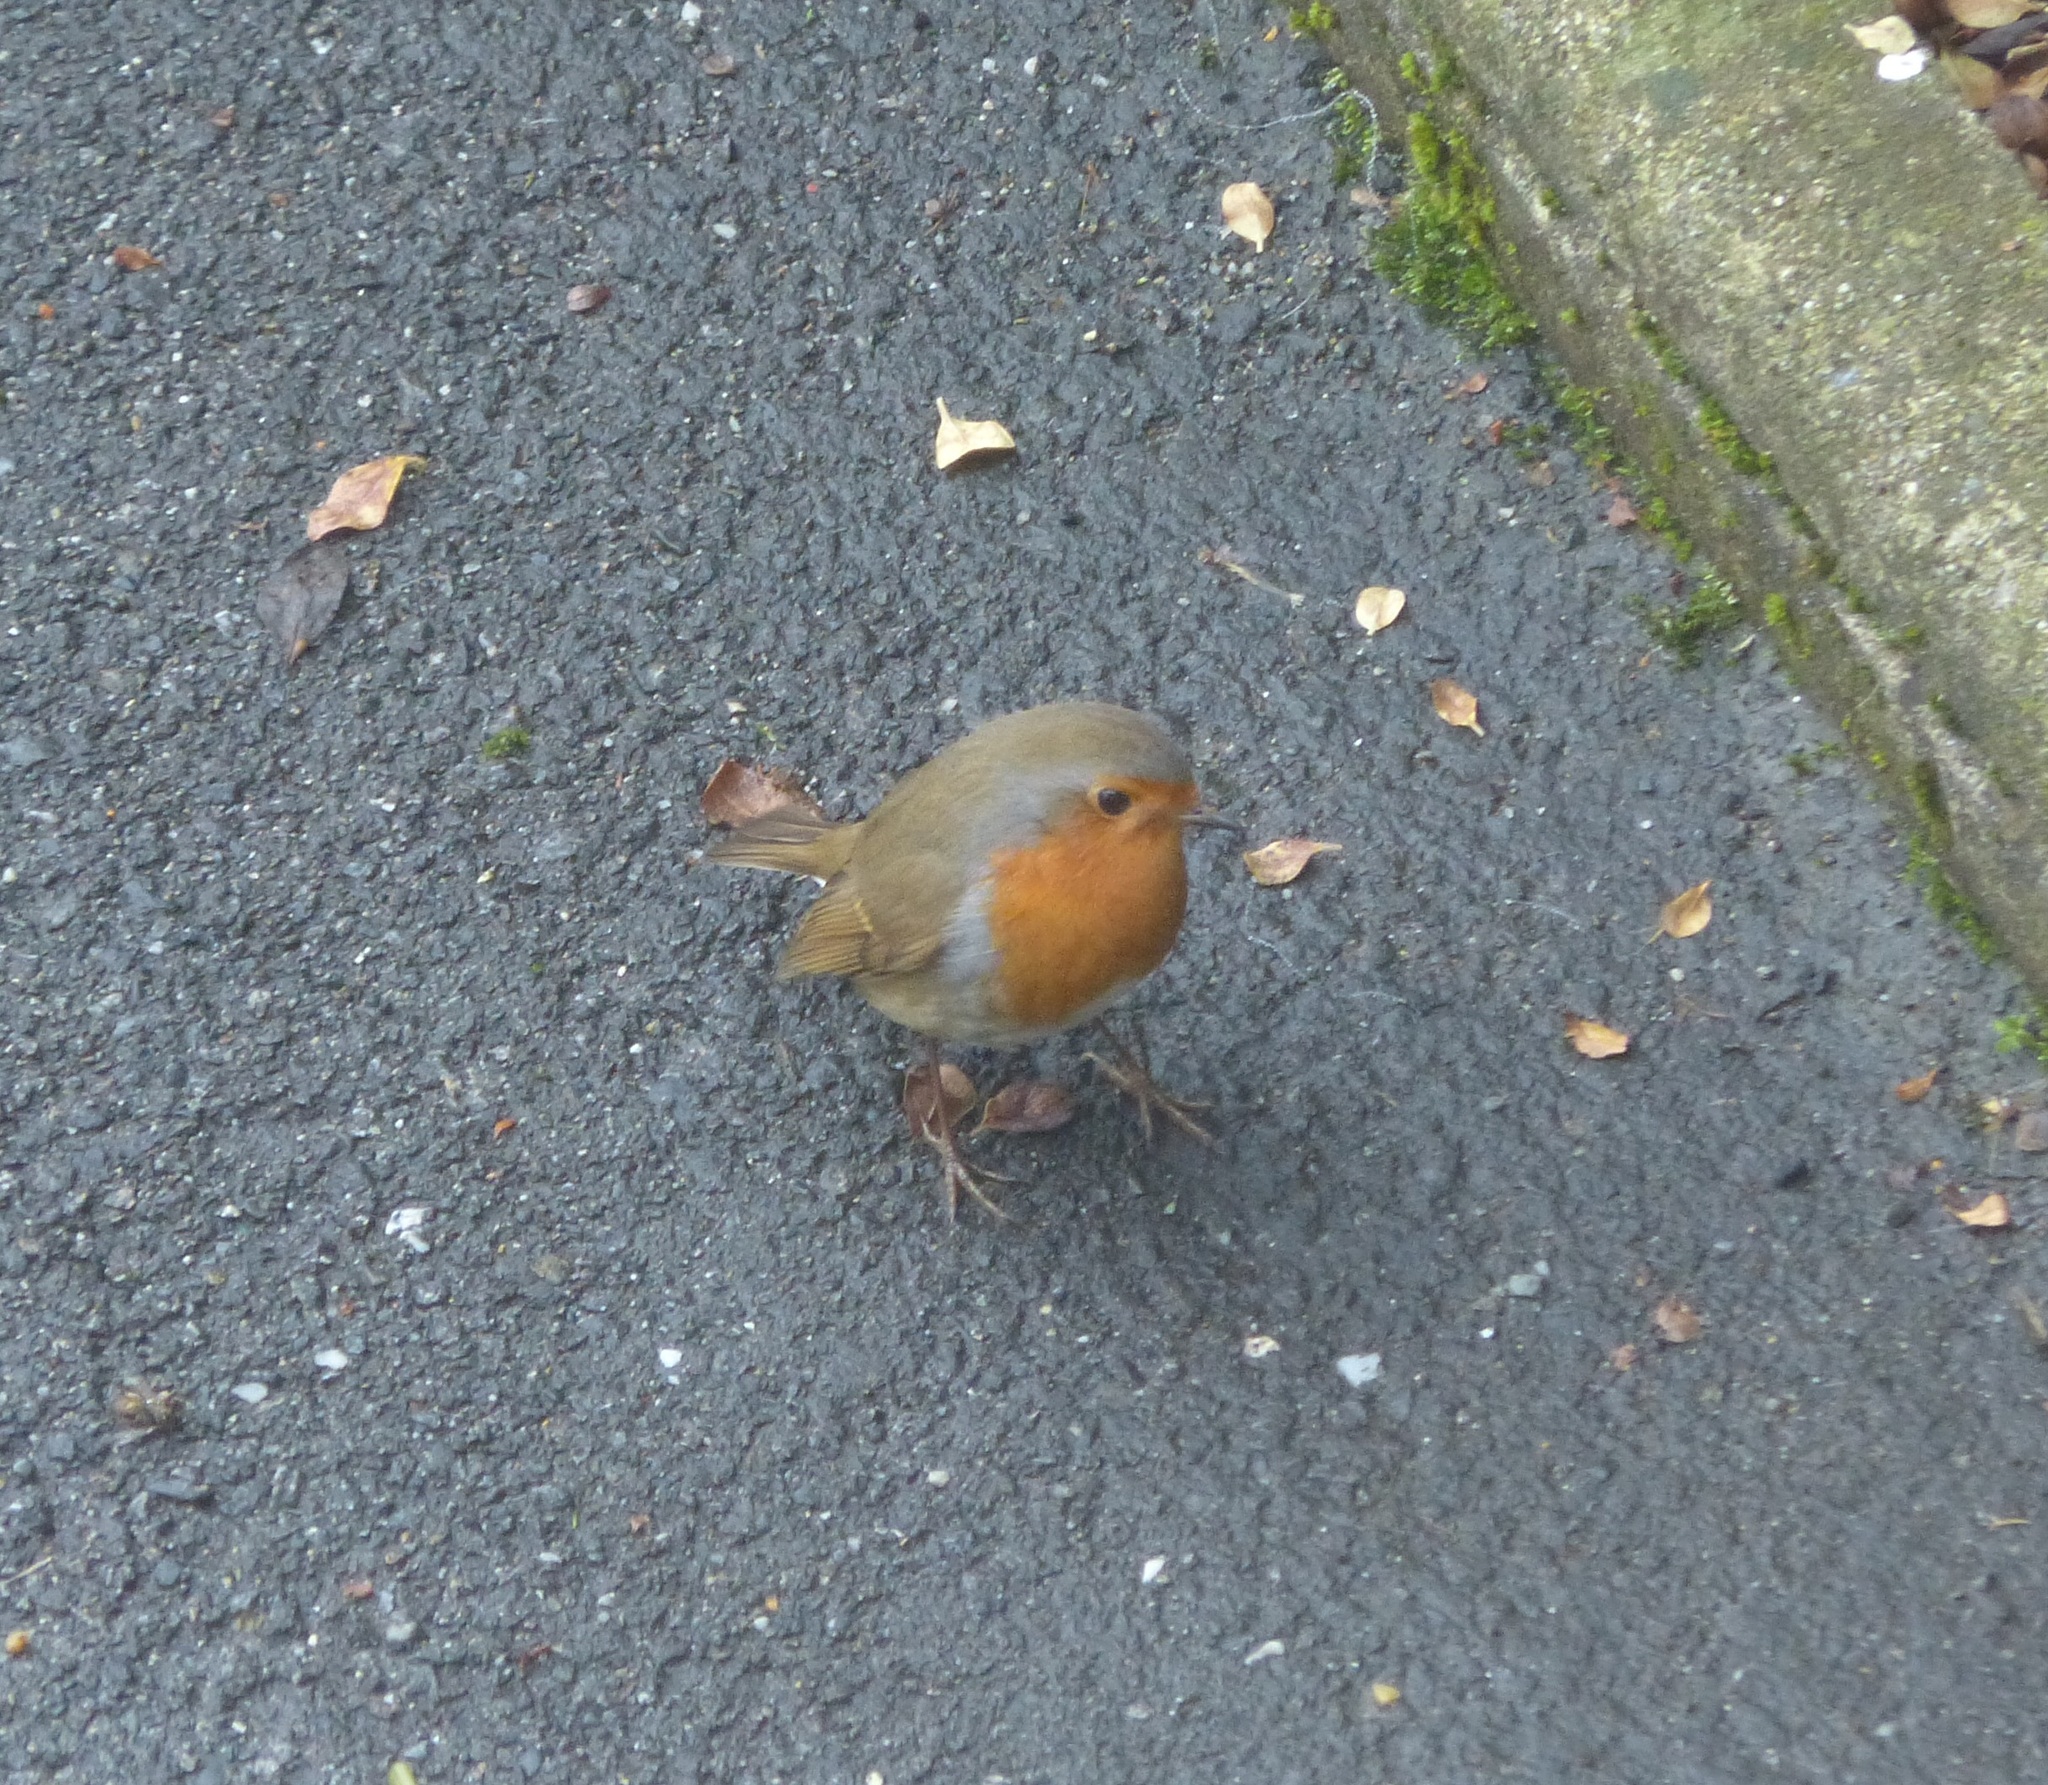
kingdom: Animalia
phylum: Chordata
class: Aves
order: Passeriformes
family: Muscicapidae
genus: Erithacus
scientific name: Erithacus rubecula
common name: European robin
